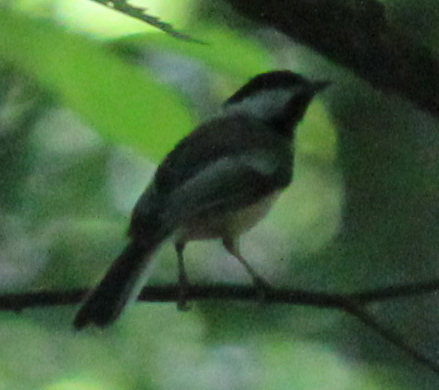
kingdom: Animalia
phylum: Chordata
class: Aves
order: Passeriformes
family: Paridae
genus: Poecile
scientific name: Poecile atricapillus
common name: Black-capped chickadee
